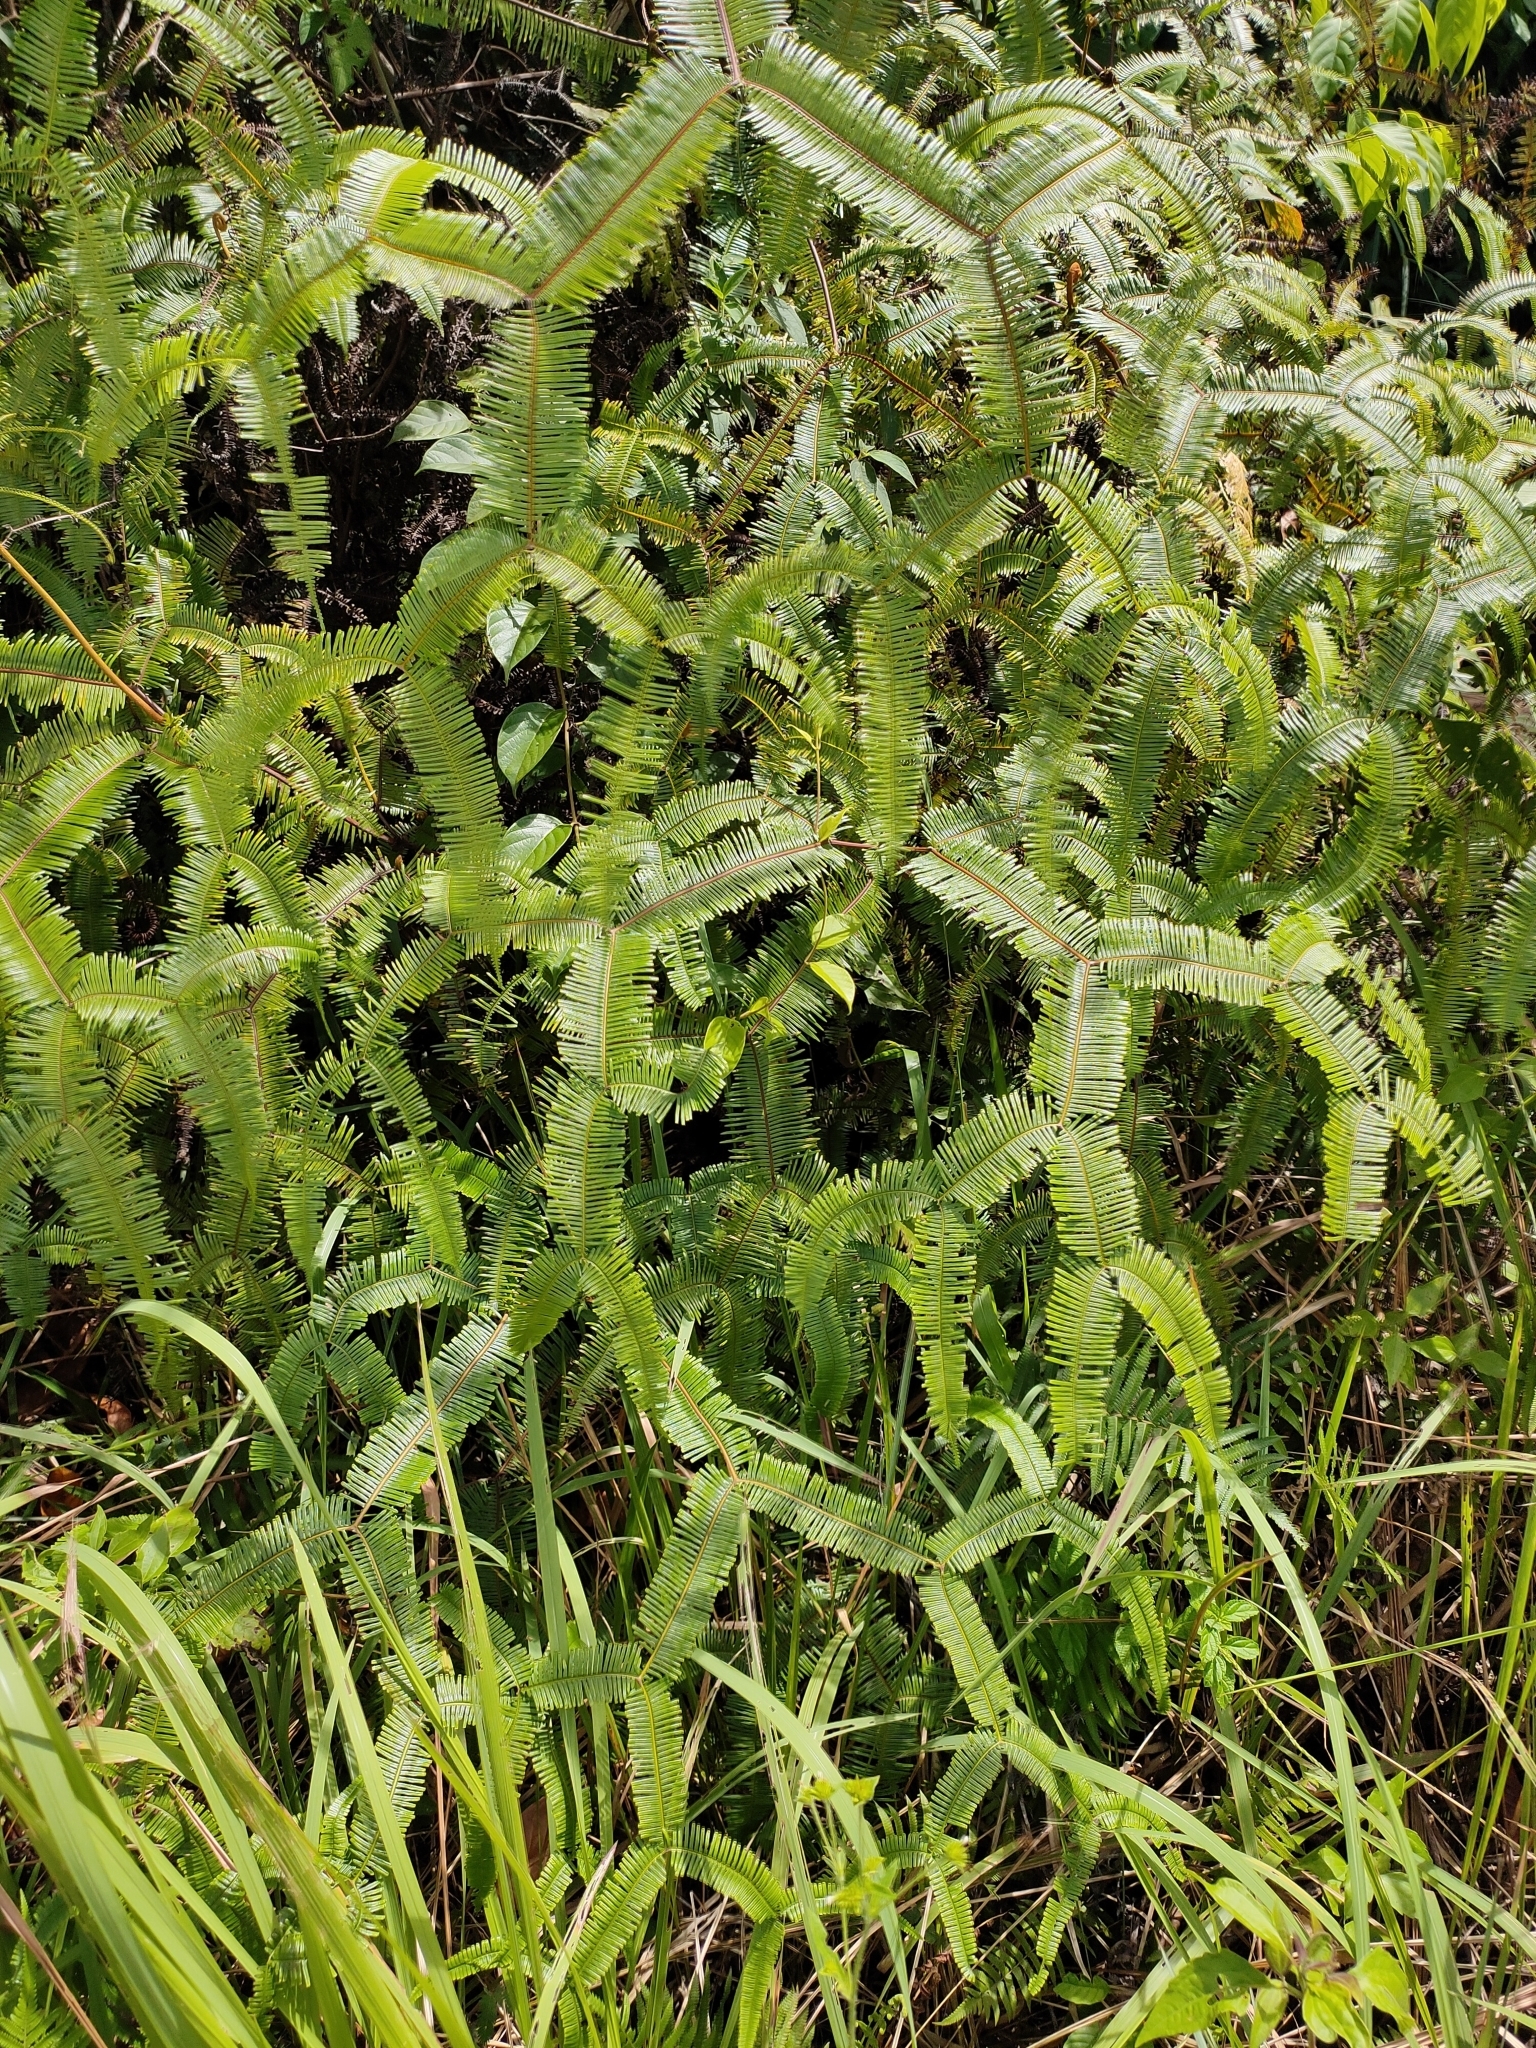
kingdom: Plantae
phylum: Tracheophyta
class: Polypodiopsida
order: Gleicheniales
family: Gleicheniaceae
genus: Sticherus
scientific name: Sticherus truncatus
